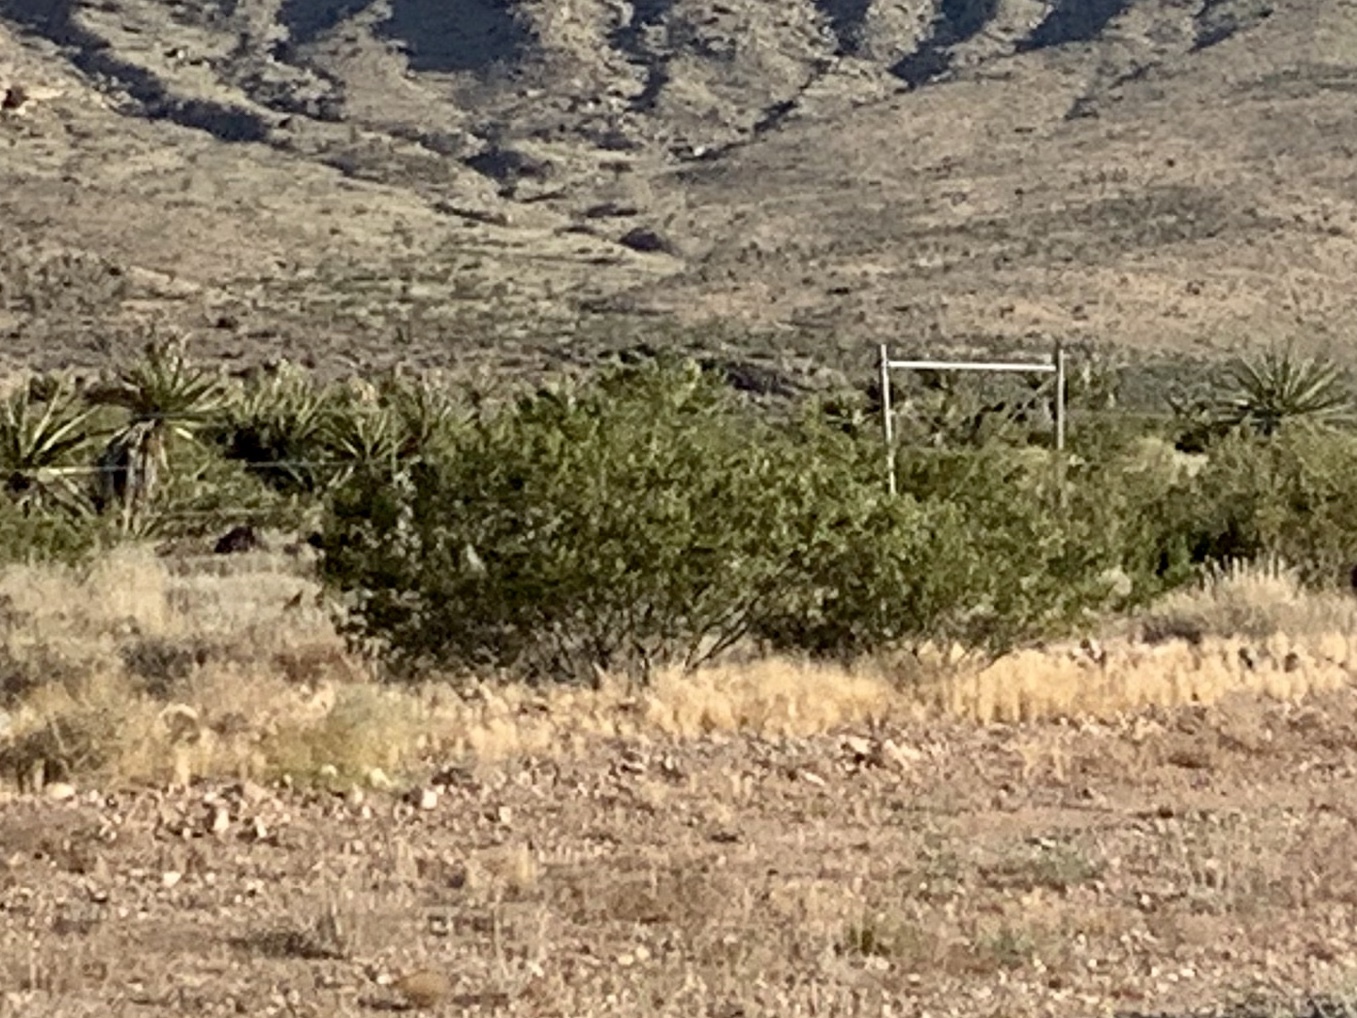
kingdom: Plantae
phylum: Tracheophyta
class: Magnoliopsida
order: Zygophyllales
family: Zygophyllaceae
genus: Larrea
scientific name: Larrea tridentata
